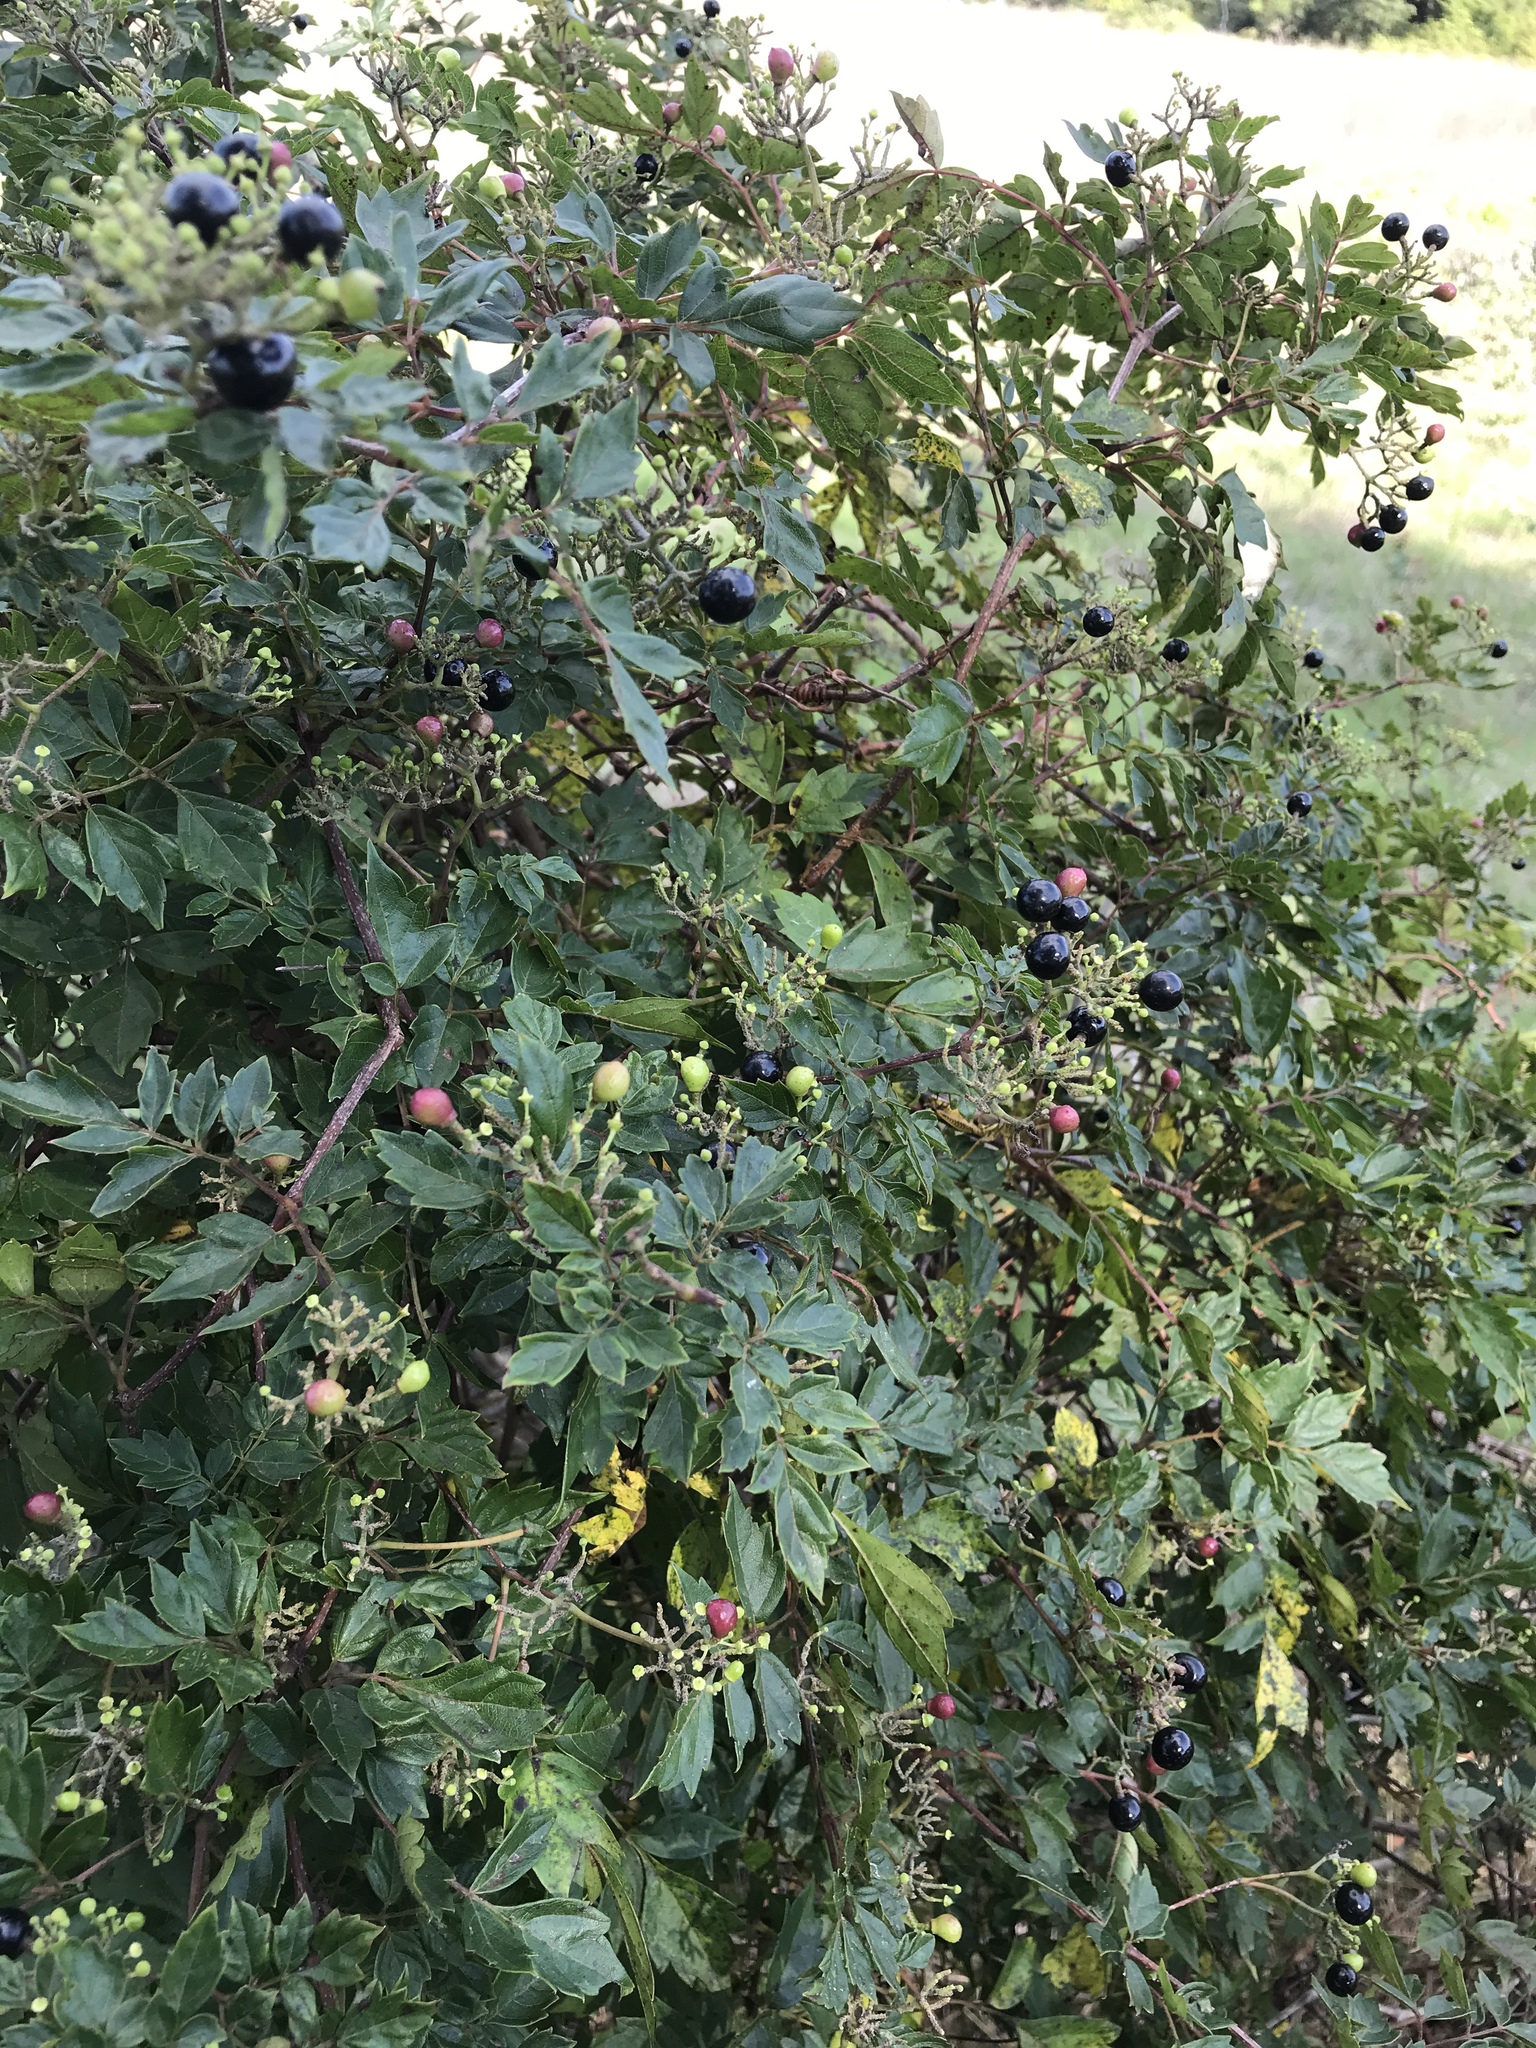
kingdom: Plantae
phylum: Tracheophyta
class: Magnoliopsida
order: Vitales
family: Vitaceae
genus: Nekemias
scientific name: Nekemias arborea
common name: Peppervine
